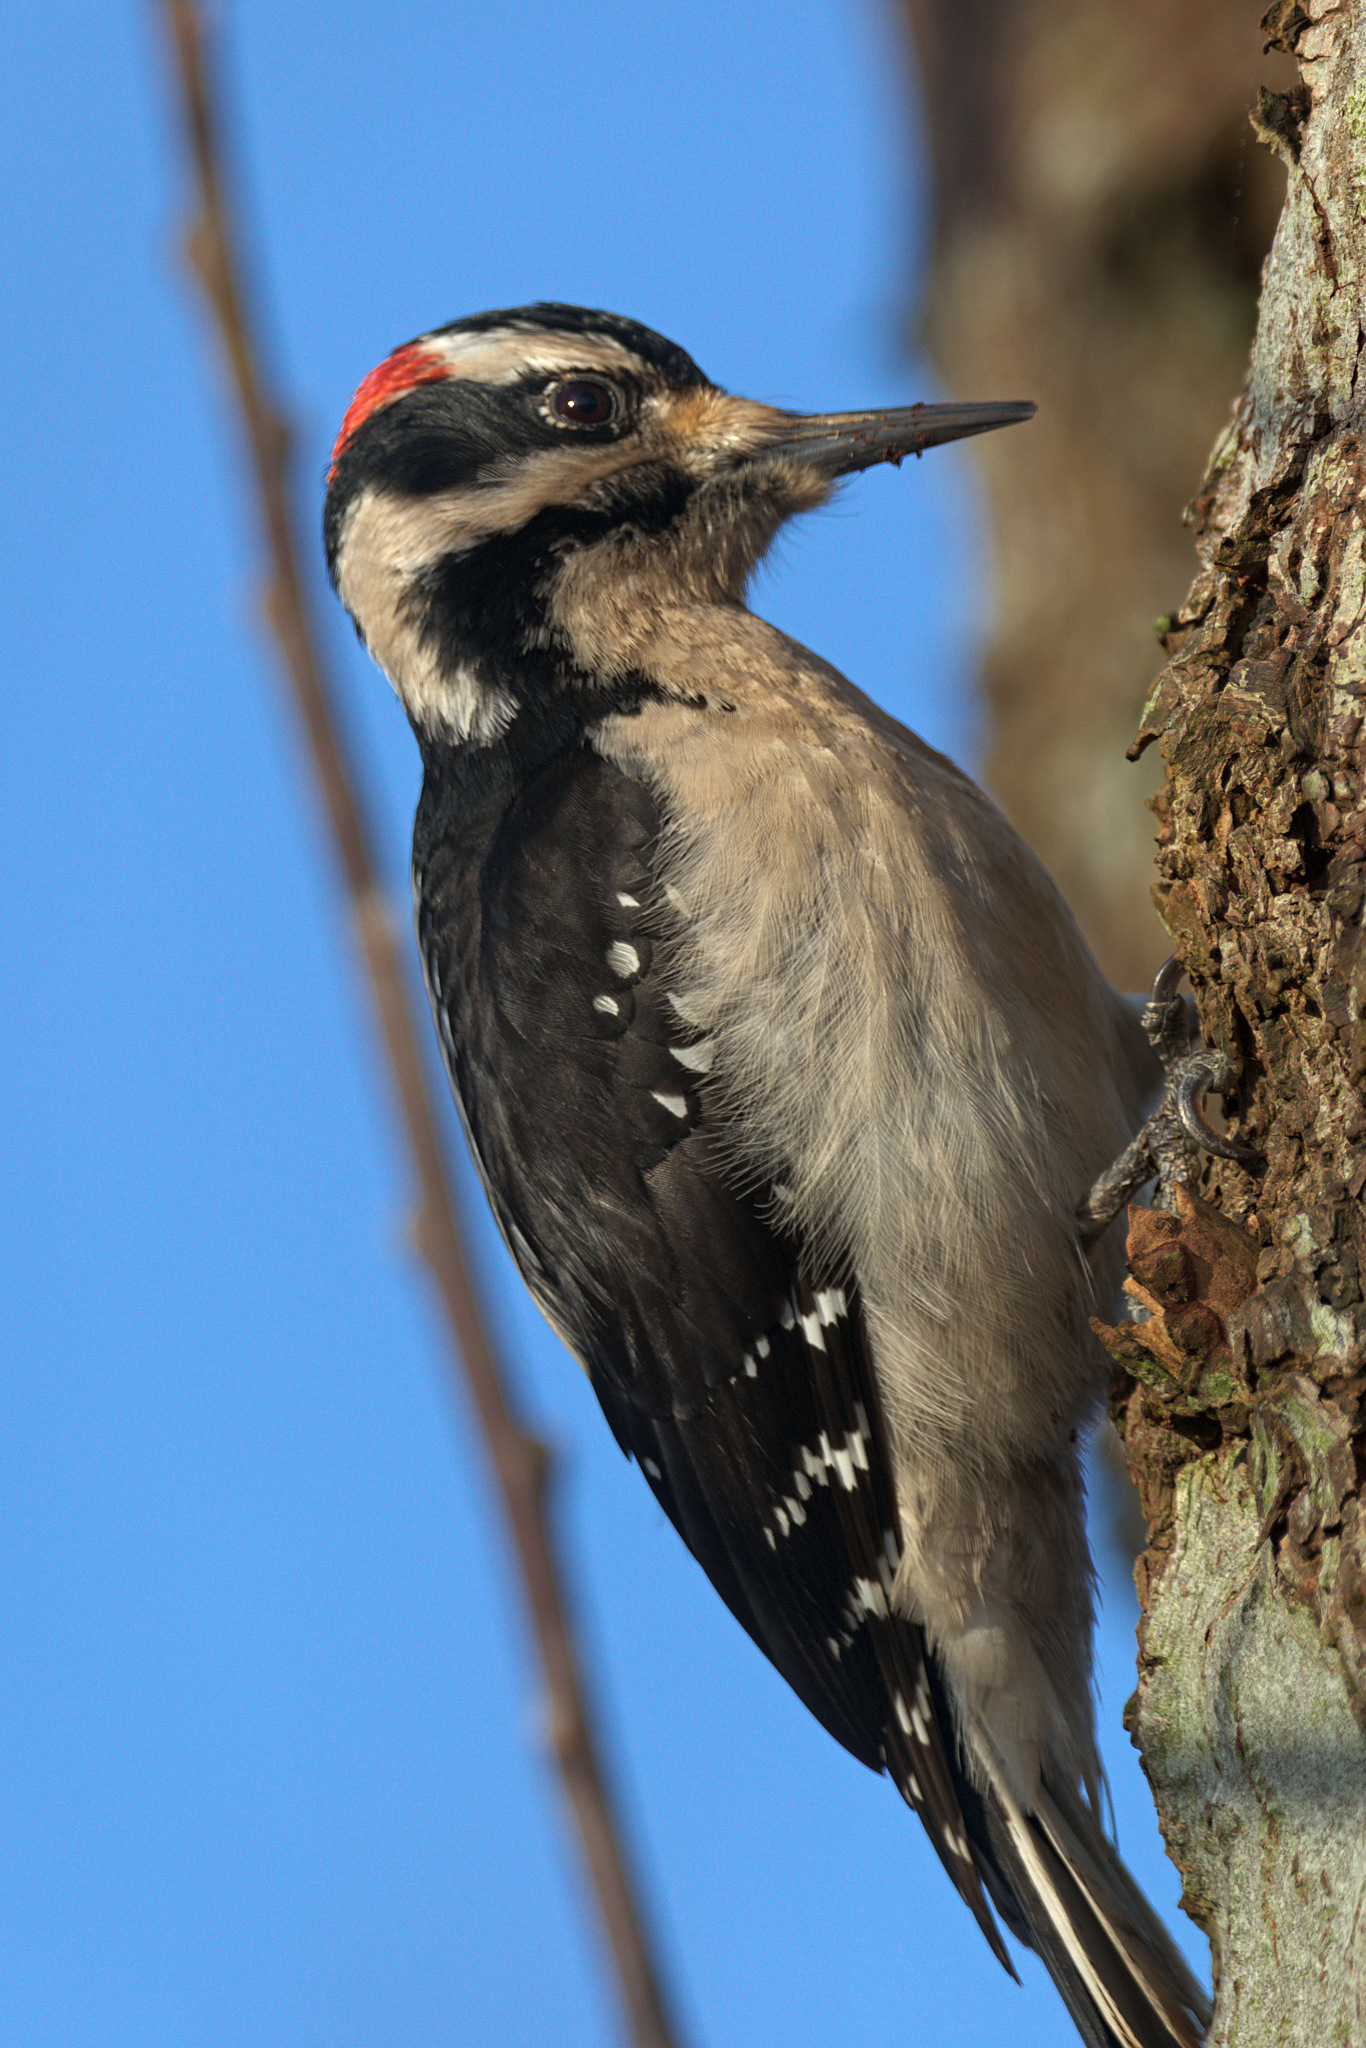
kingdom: Animalia
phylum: Chordata
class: Aves
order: Piciformes
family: Picidae
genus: Leuconotopicus
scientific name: Leuconotopicus villosus
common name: Hairy woodpecker
